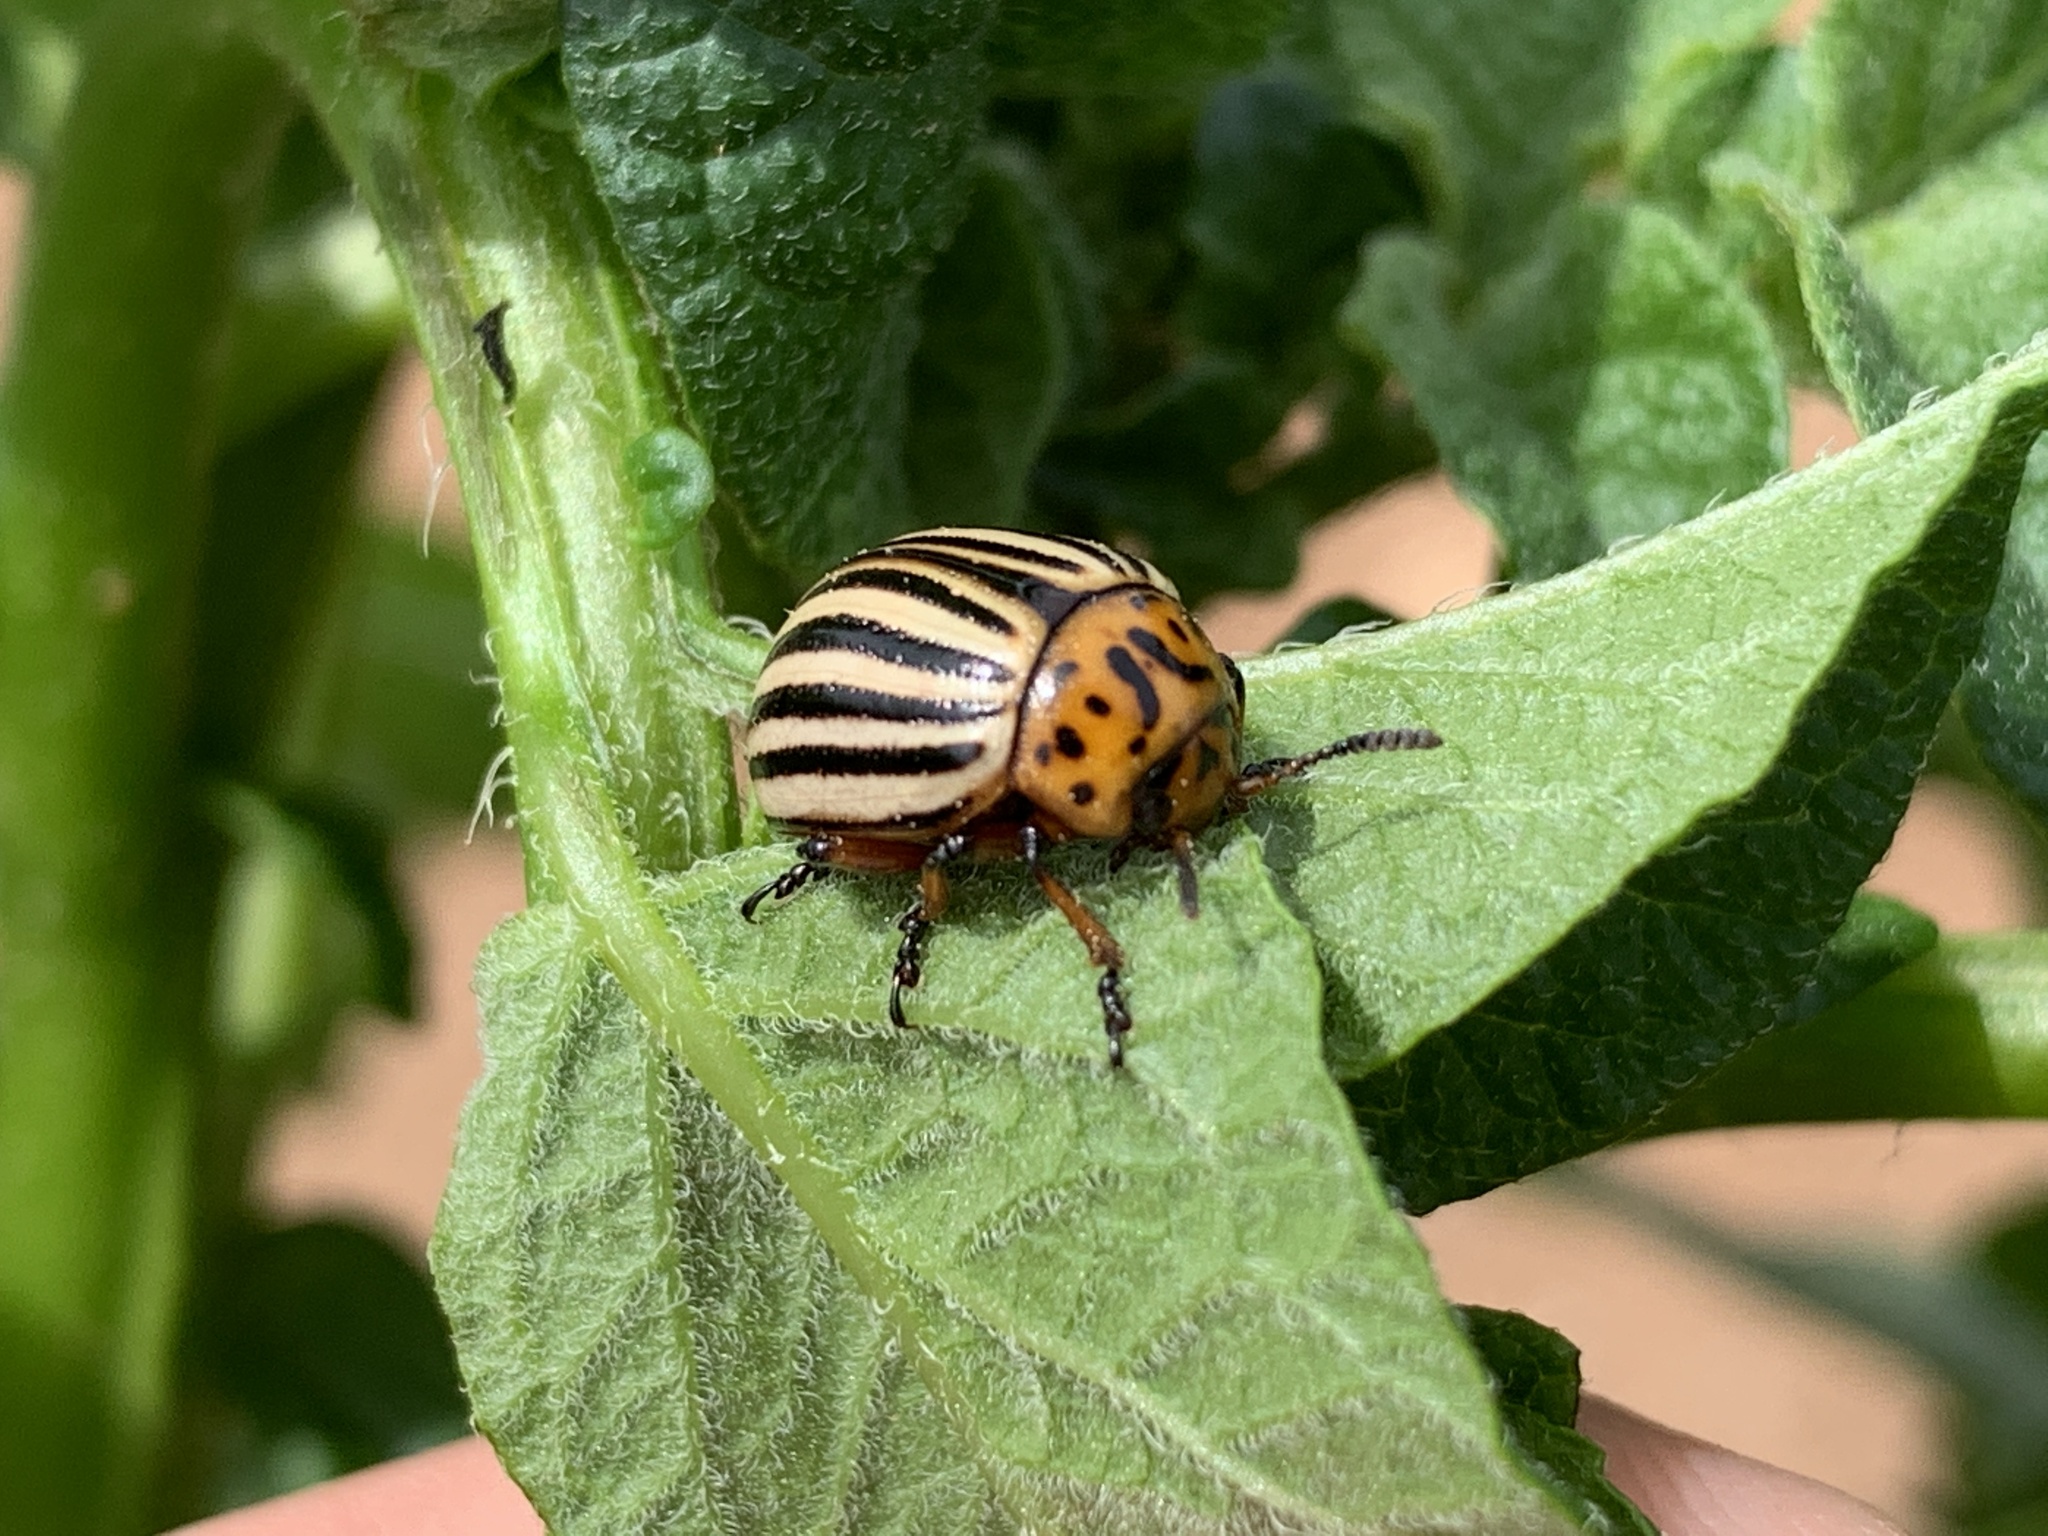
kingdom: Animalia
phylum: Arthropoda
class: Insecta
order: Coleoptera
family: Chrysomelidae
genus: Leptinotarsa
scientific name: Leptinotarsa decemlineata
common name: Colorado potato beetle
